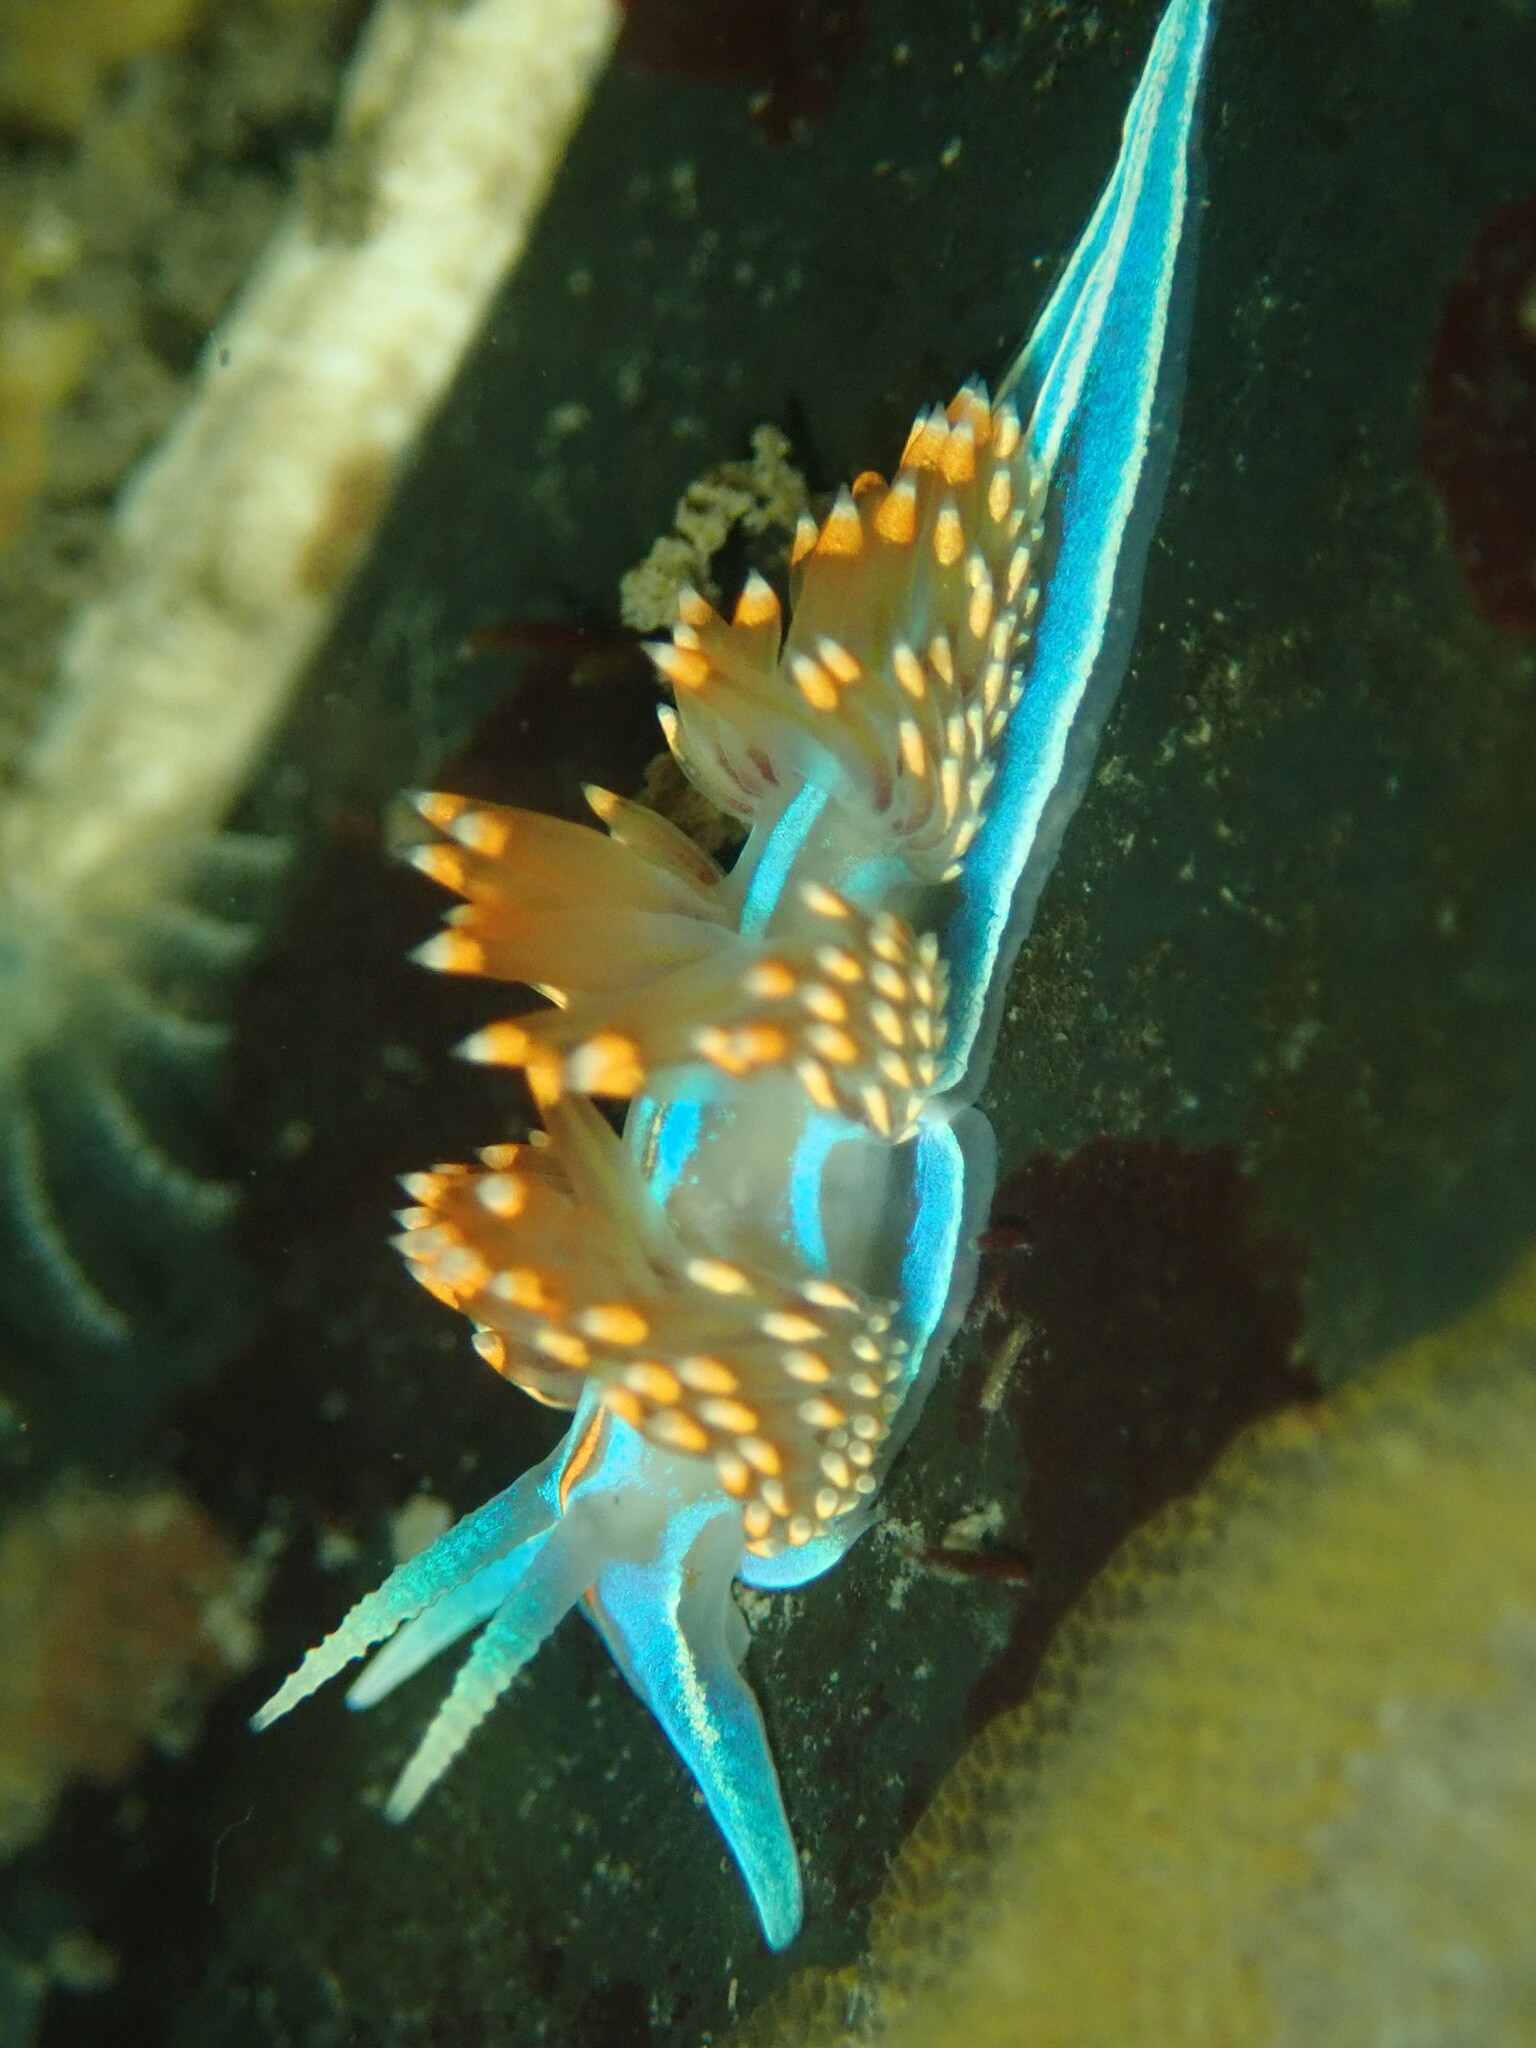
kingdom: Animalia
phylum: Mollusca
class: Gastropoda
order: Nudibranchia
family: Myrrhinidae
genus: Hermissenda
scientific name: Hermissenda opalescens
